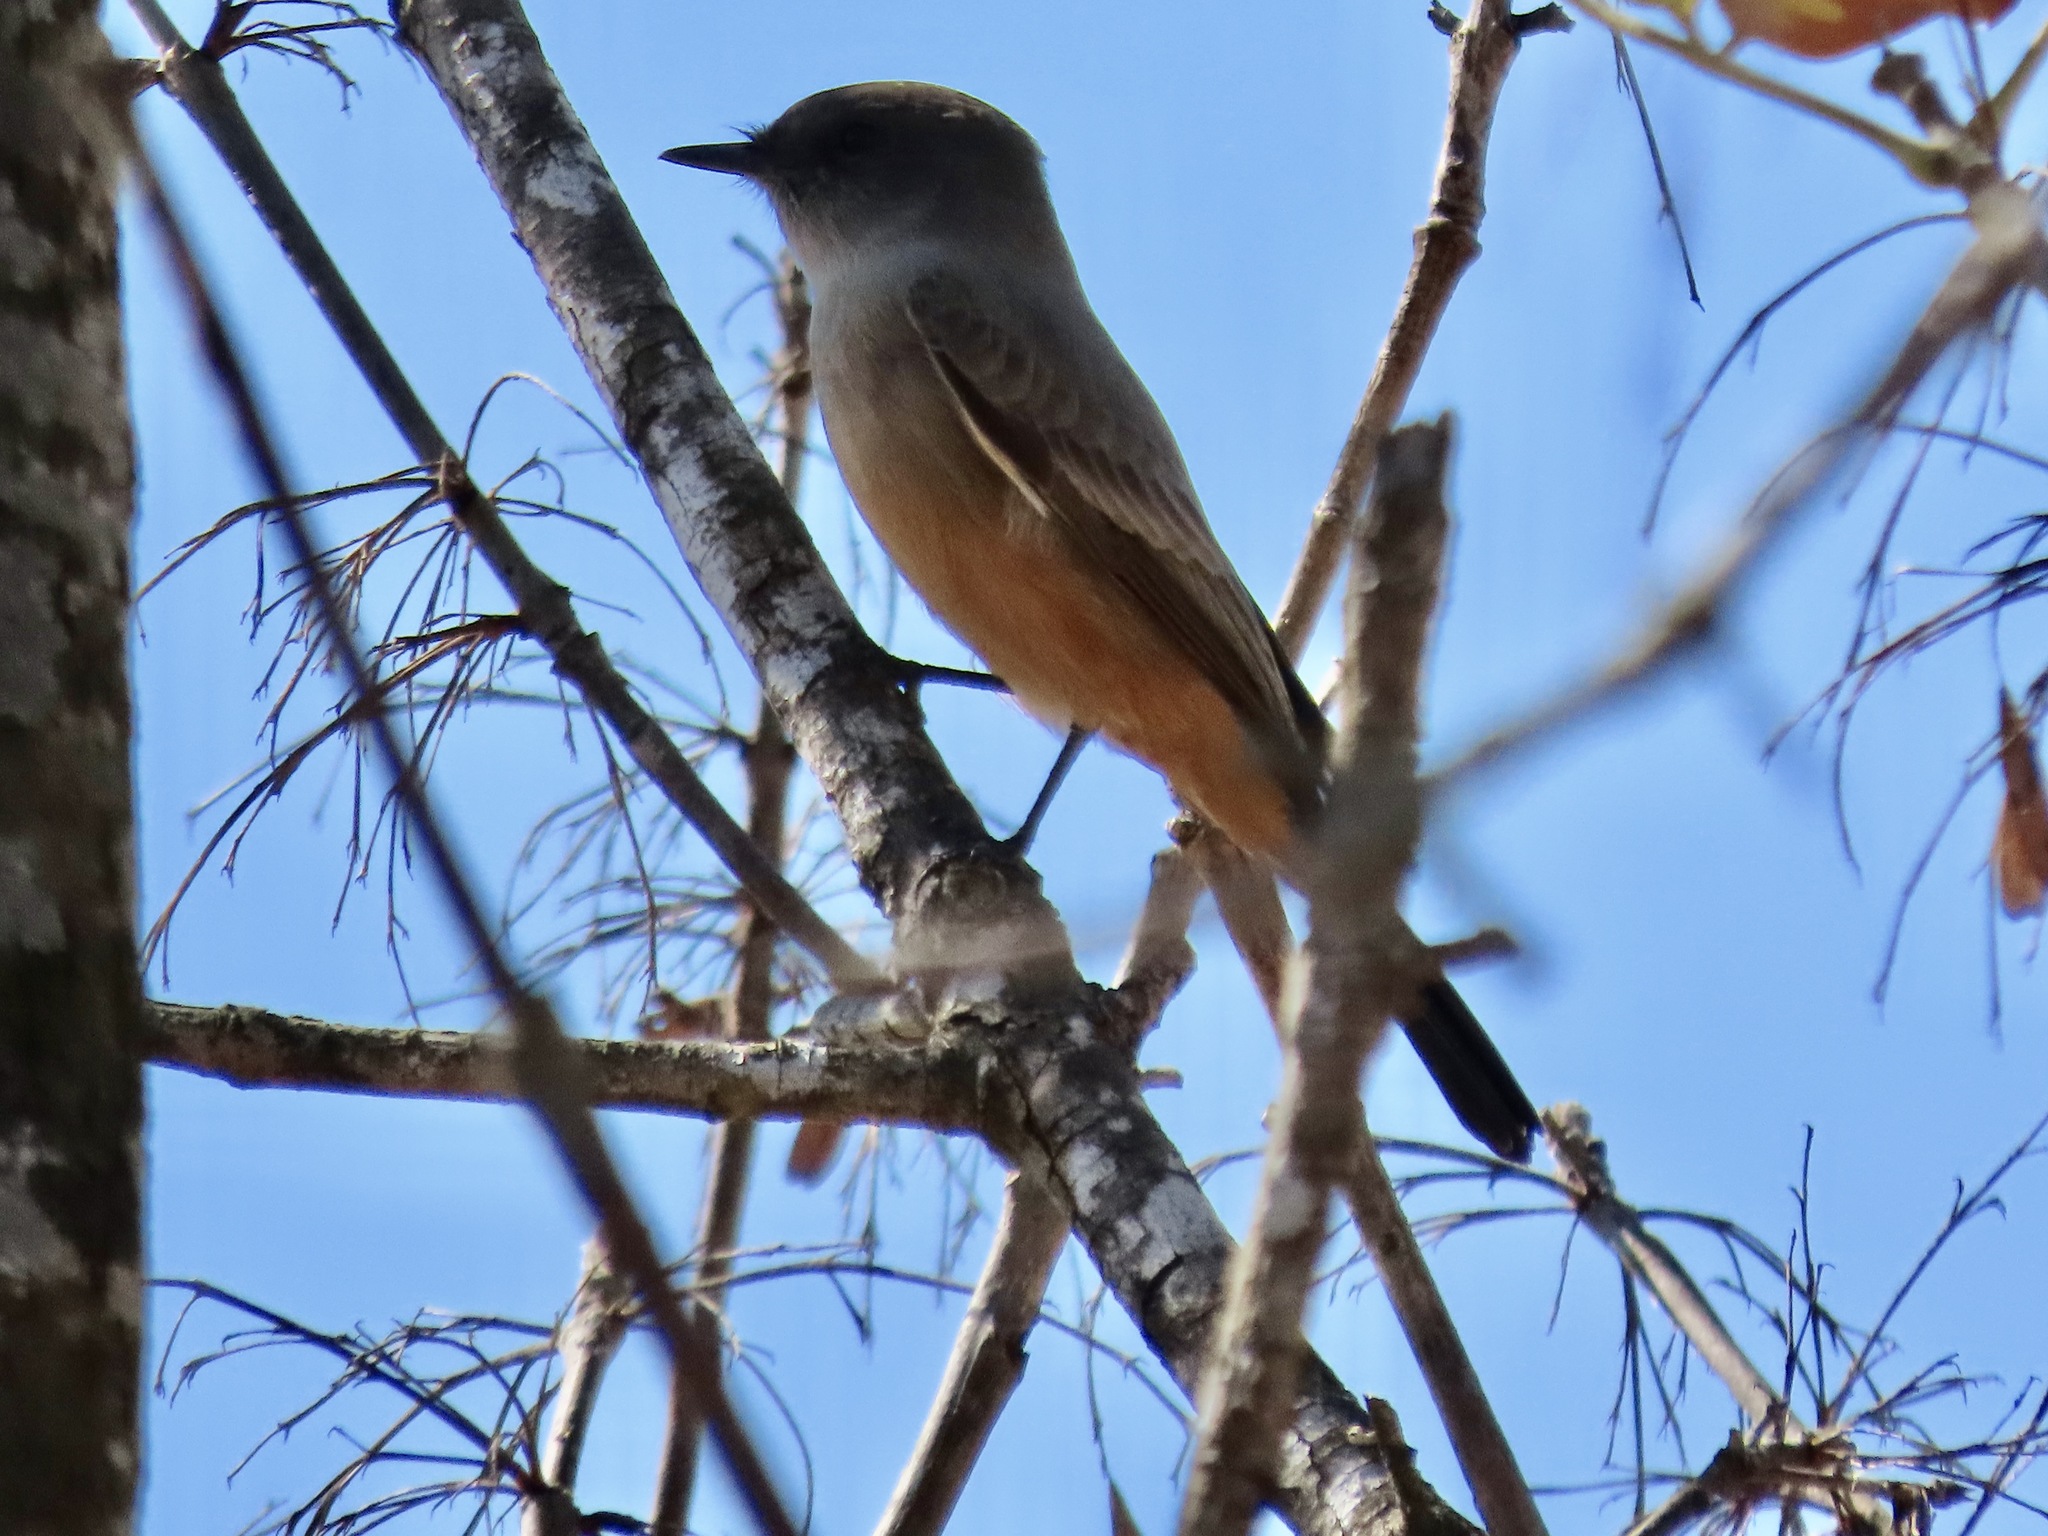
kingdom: Animalia
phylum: Chordata
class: Aves
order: Passeriformes
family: Tyrannidae
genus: Sayornis
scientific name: Sayornis saya
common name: Say's phoebe
